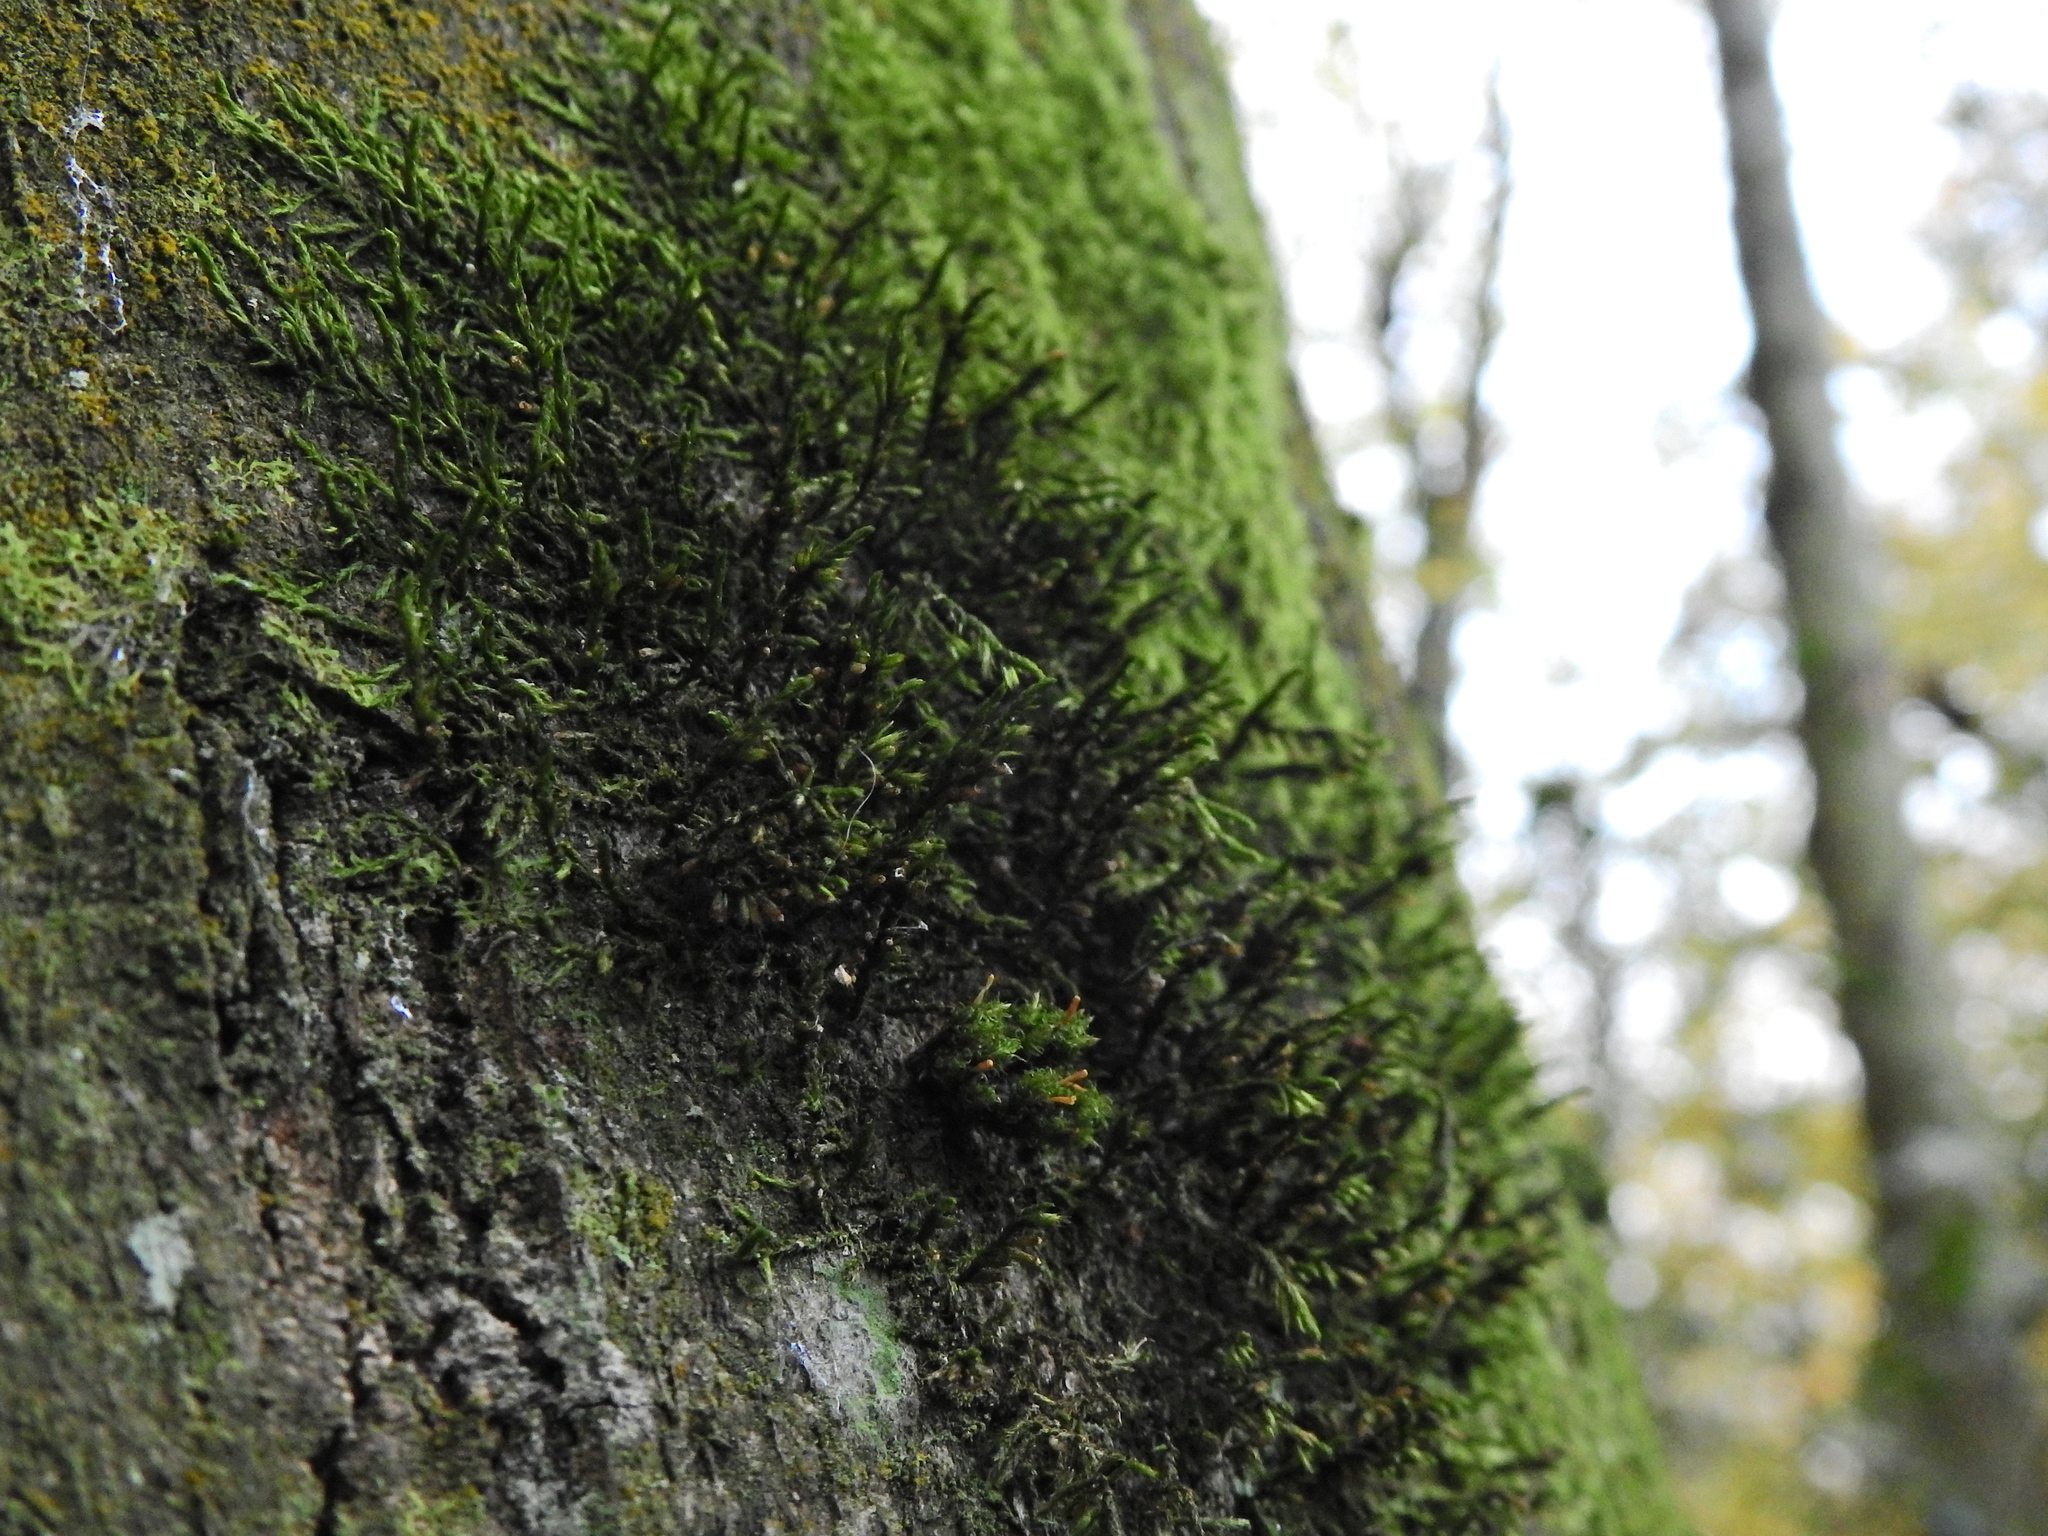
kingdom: Plantae
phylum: Bryophyta
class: Bryopsida
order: Hypnales
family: Cryphaeaceae
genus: Cryphaea
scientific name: Cryphaea heteromalla
